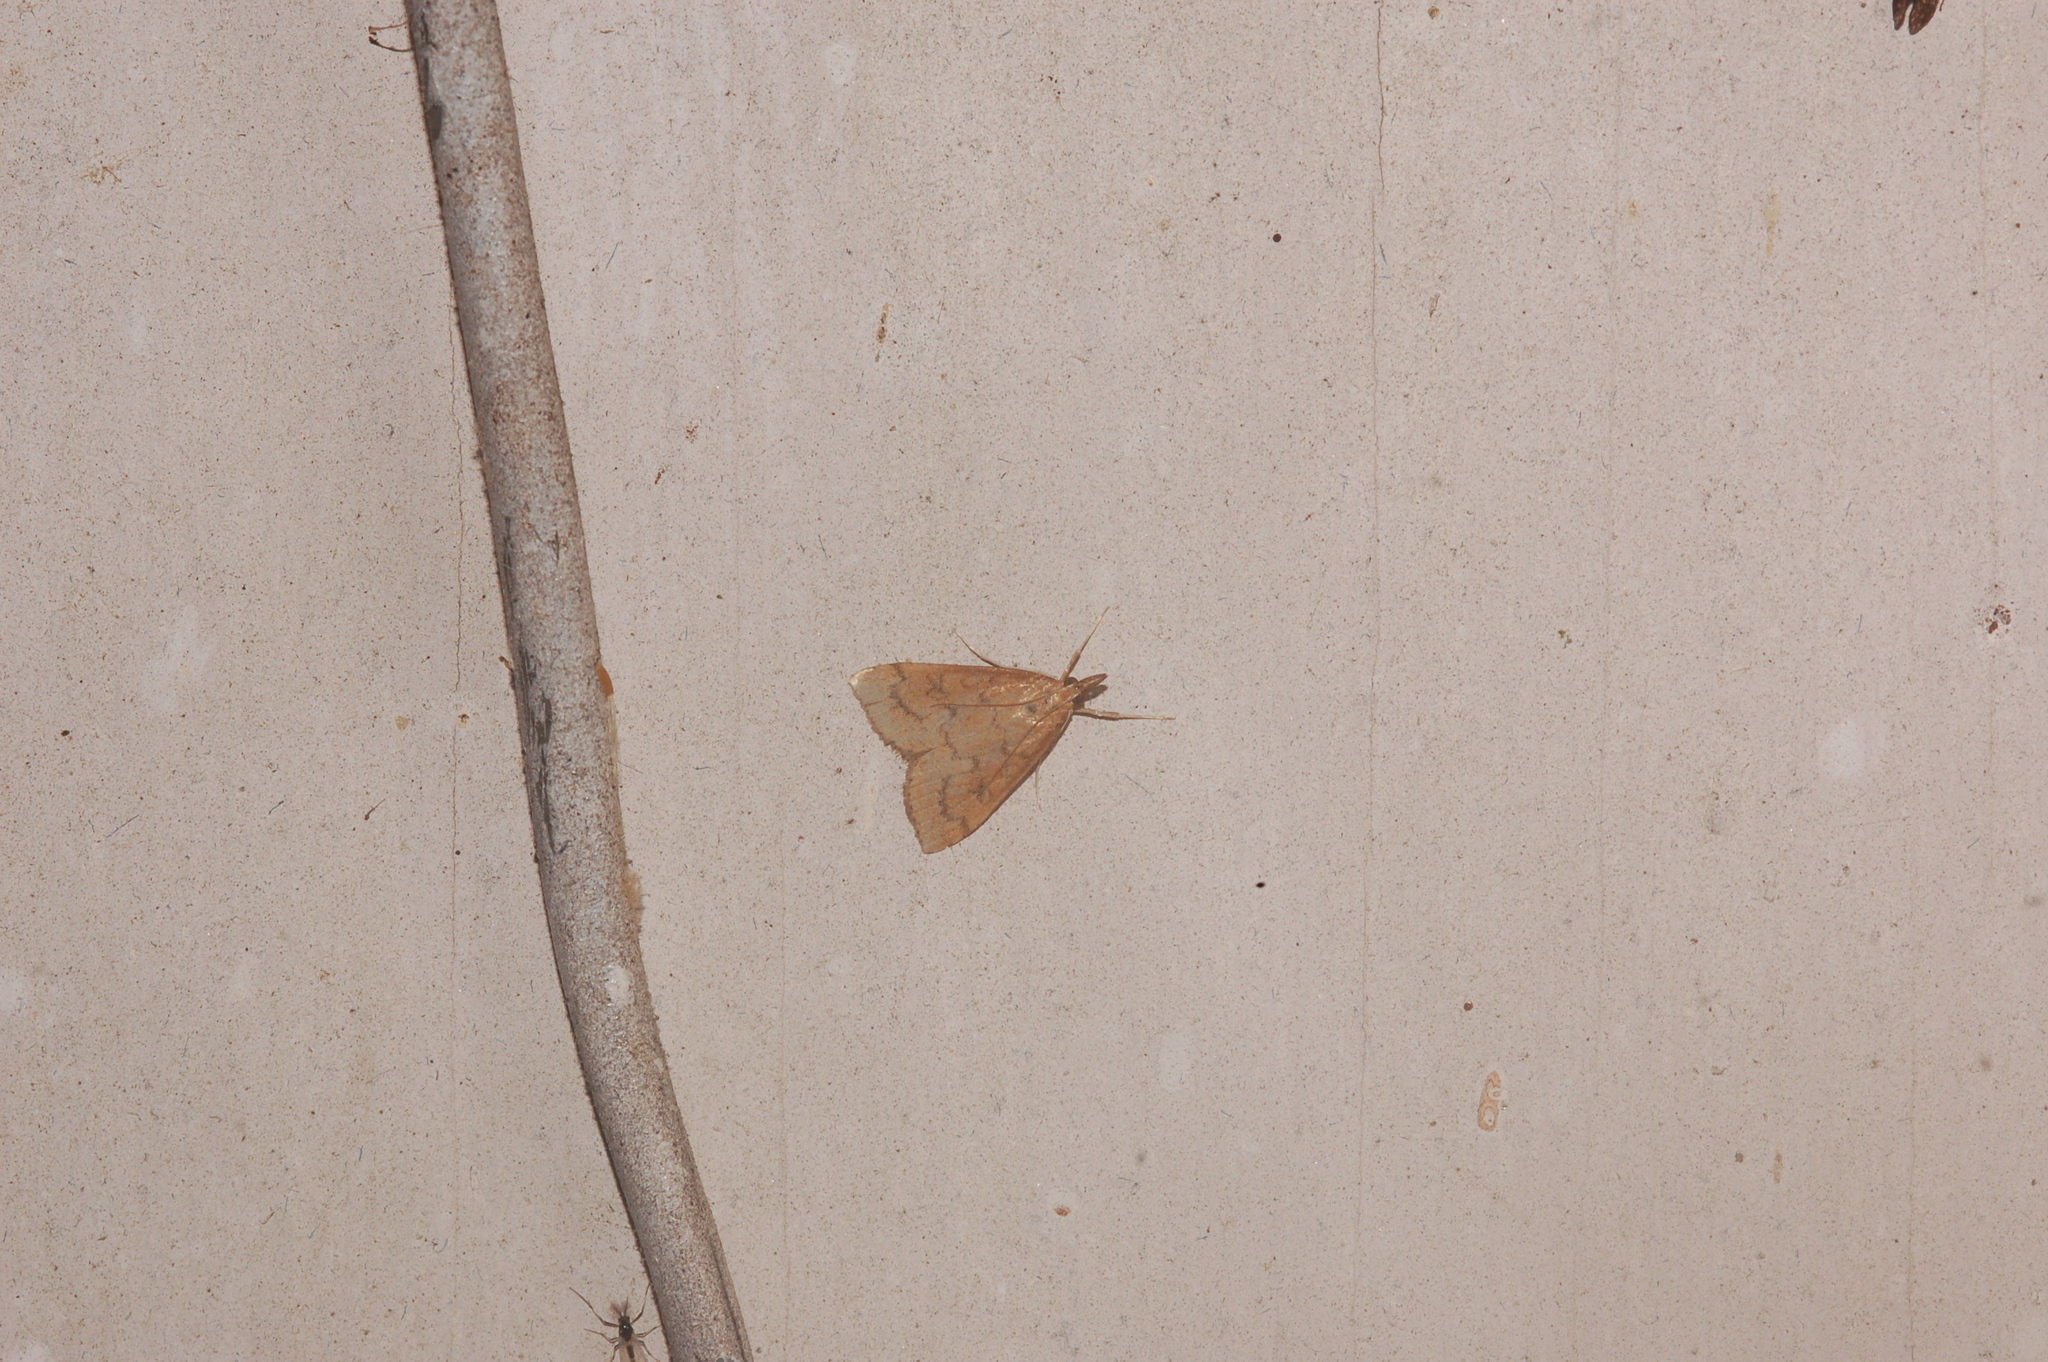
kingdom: Animalia
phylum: Arthropoda
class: Insecta
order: Lepidoptera
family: Crambidae
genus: Udea
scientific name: Udea rubigalis
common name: Celery leaftier moth
